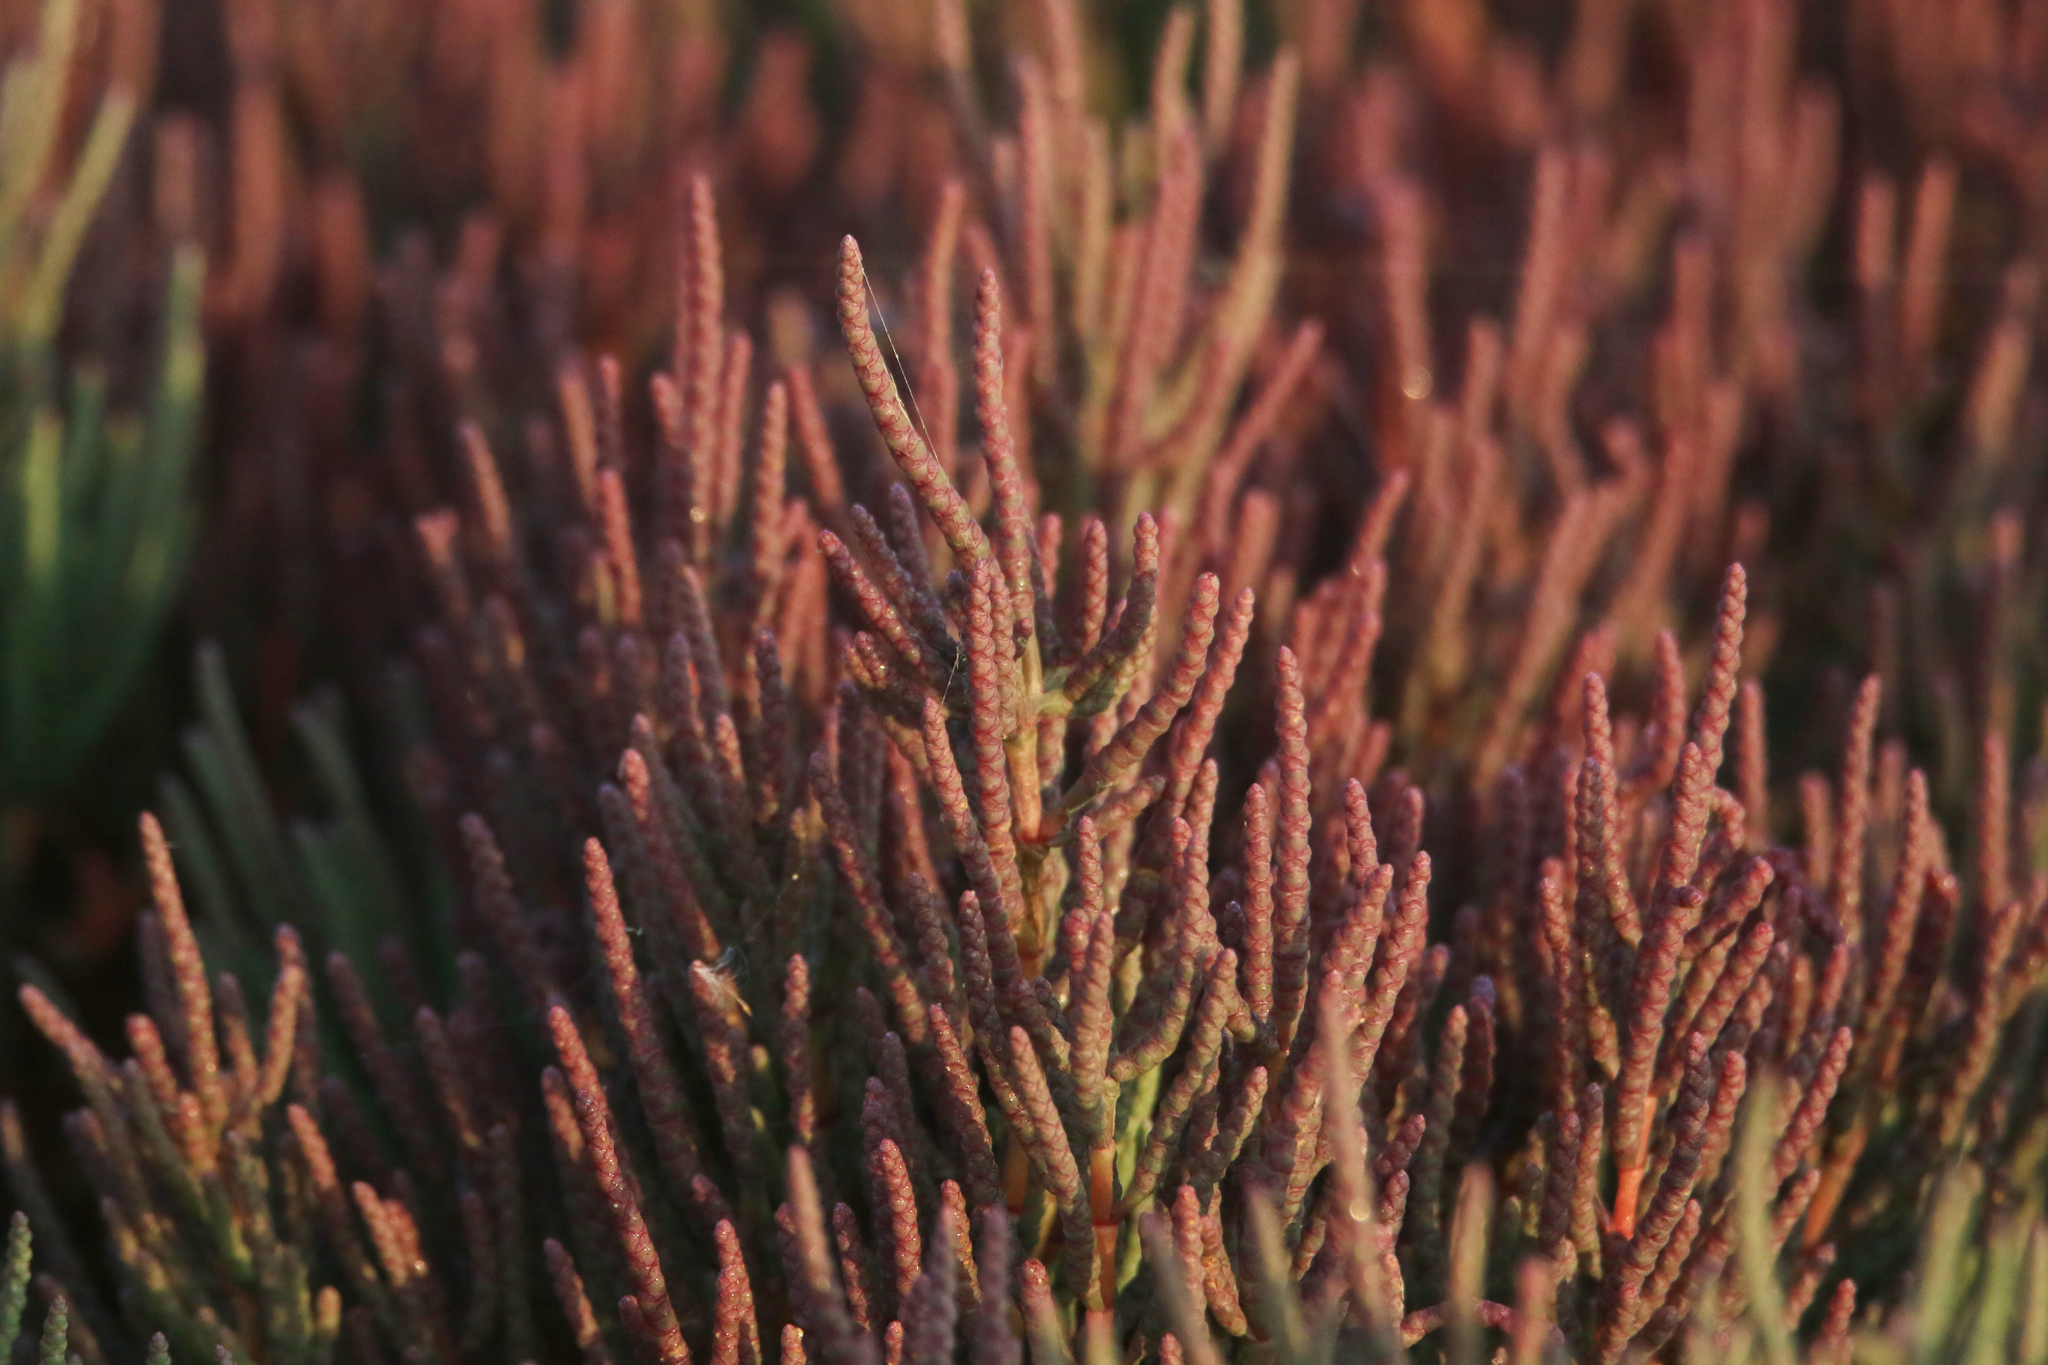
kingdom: Plantae
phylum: Tracheophyta
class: Magnoliopsida
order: Caryophyllales
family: Amaranthaceae
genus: Salicornia
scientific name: Salicornia perennans
